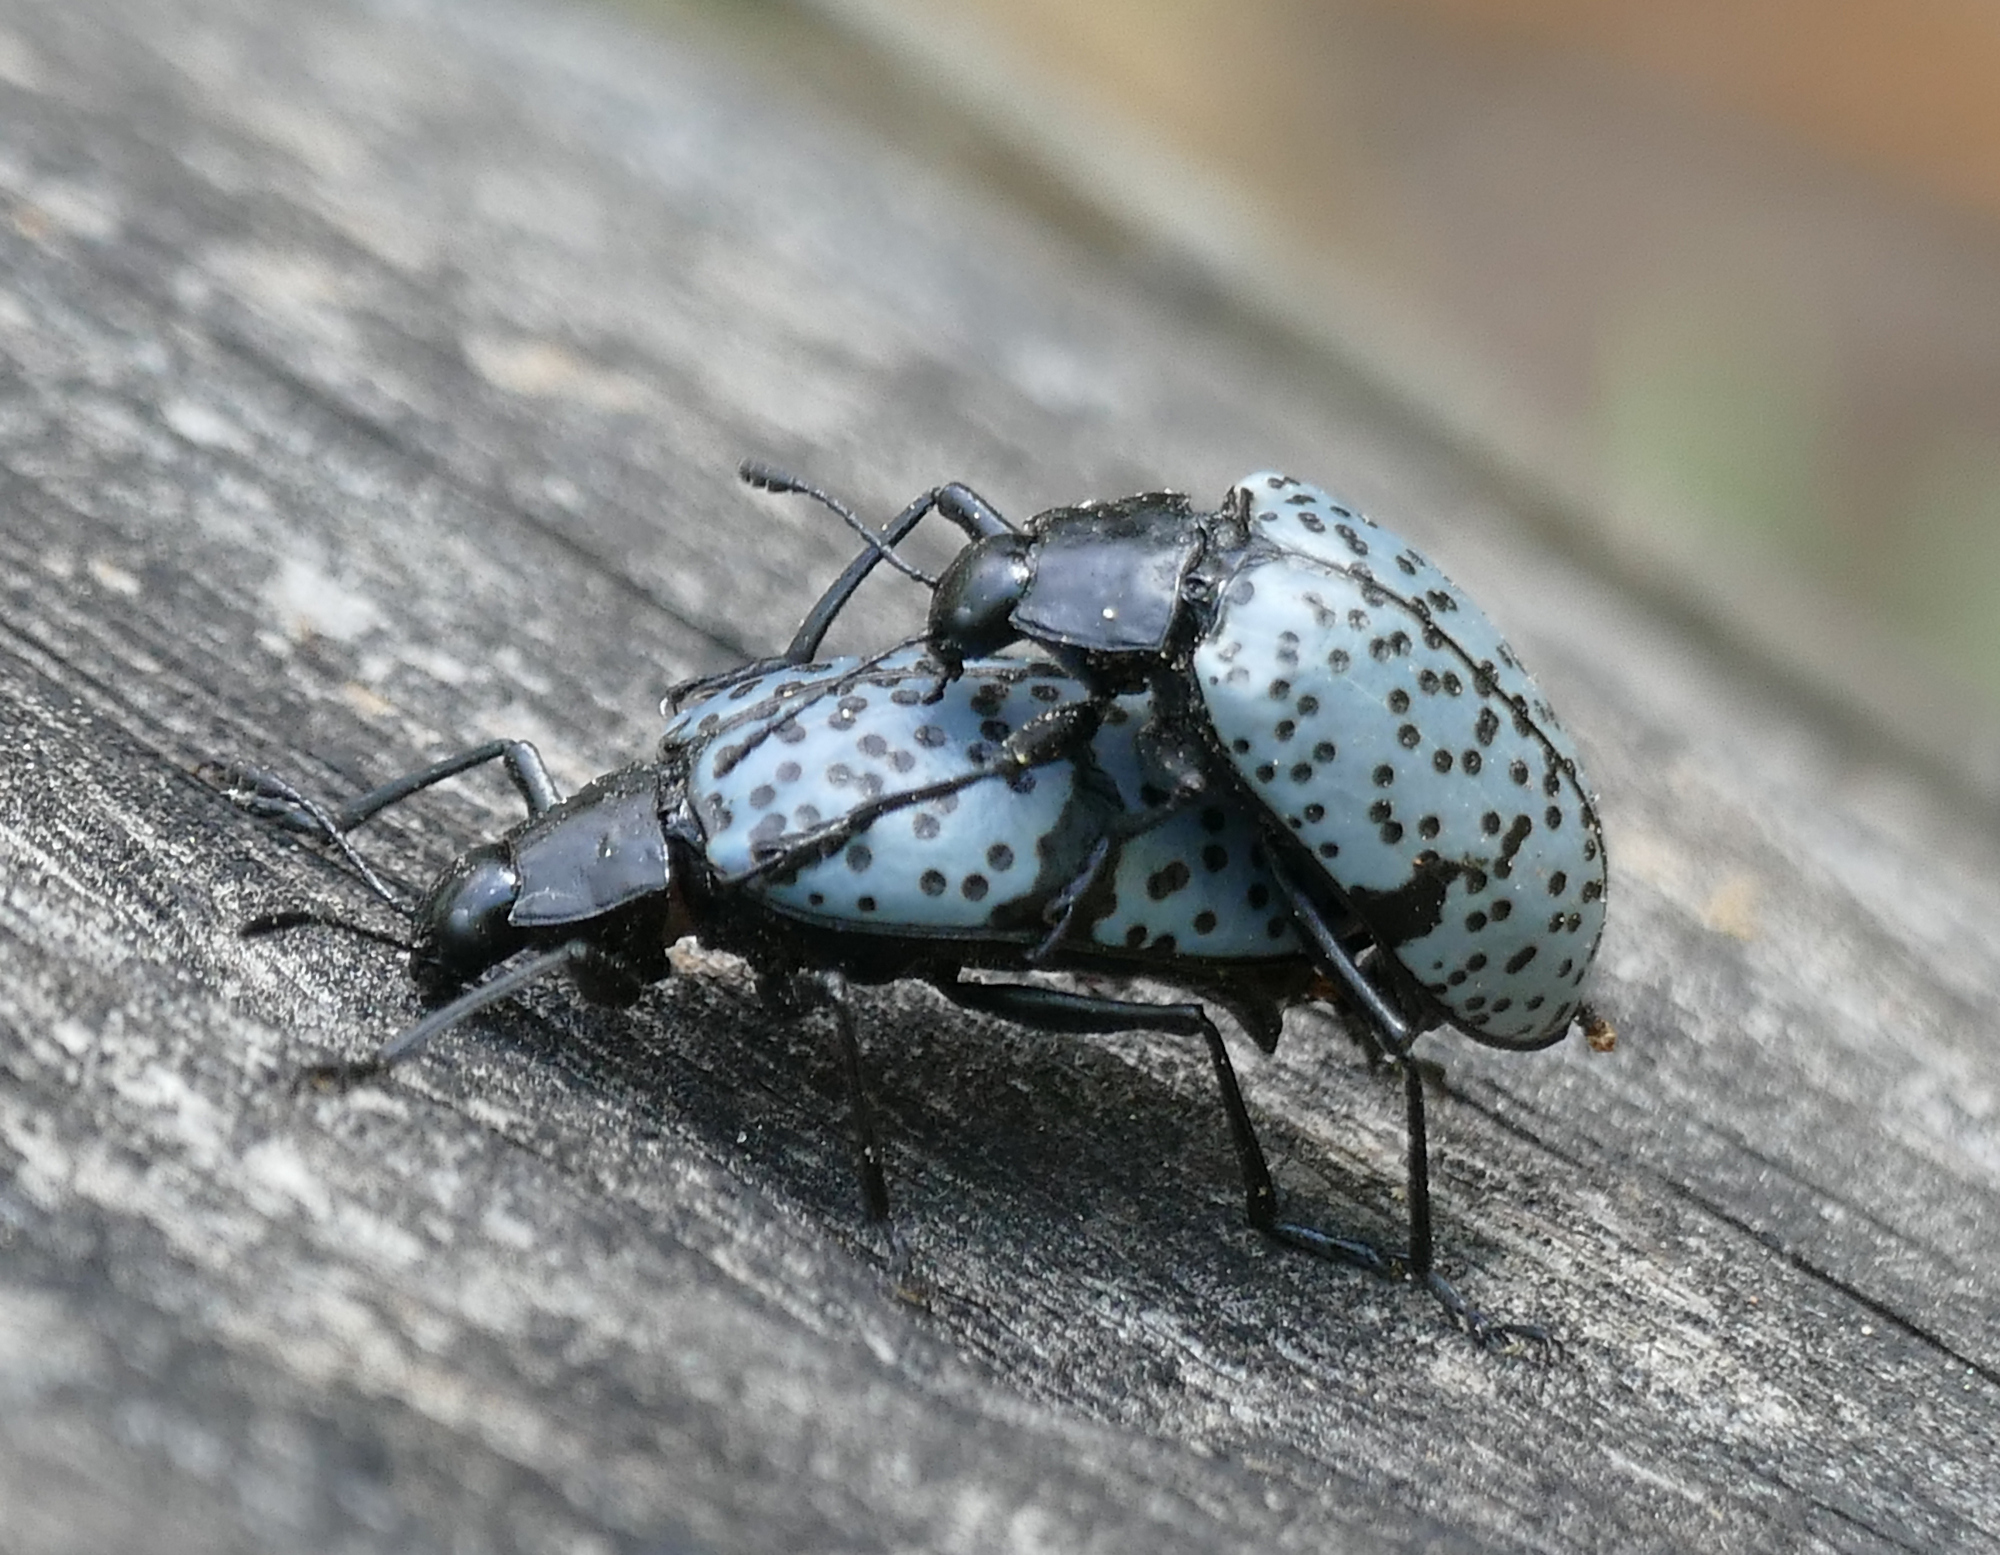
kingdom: Animalia
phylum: Arthropoda
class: Insecta
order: Coleoptera
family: Erotylidae
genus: Gibbifer
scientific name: Gibbifer californicus
